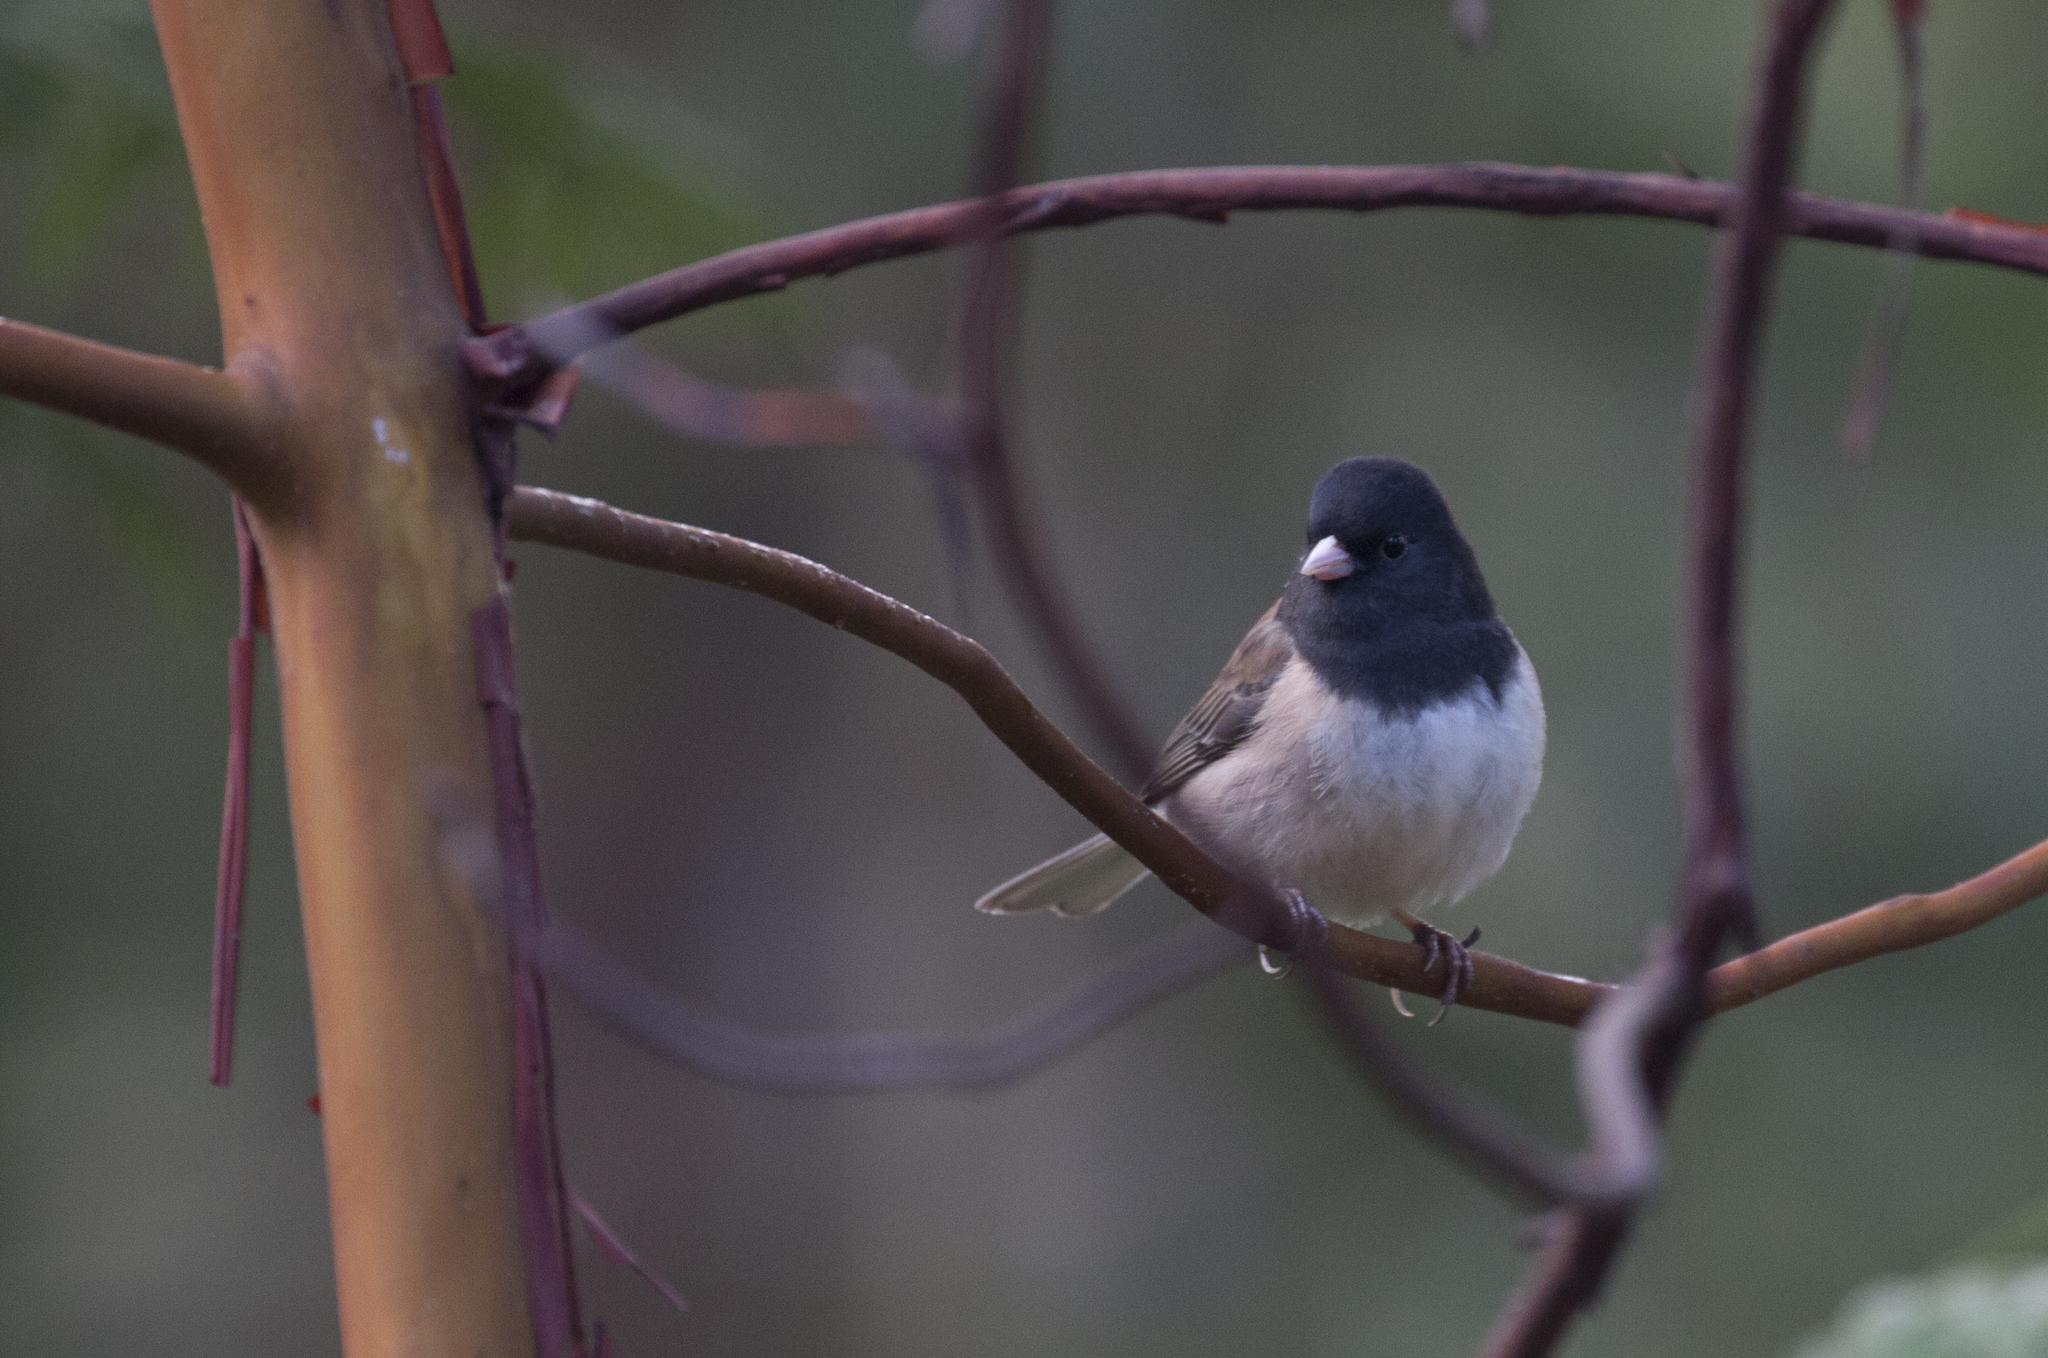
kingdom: Animalia
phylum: Chordata
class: Aves
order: Passeriformes
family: Passerellidae
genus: Junco
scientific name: Junco hyemalis
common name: Dark-eyed junco
